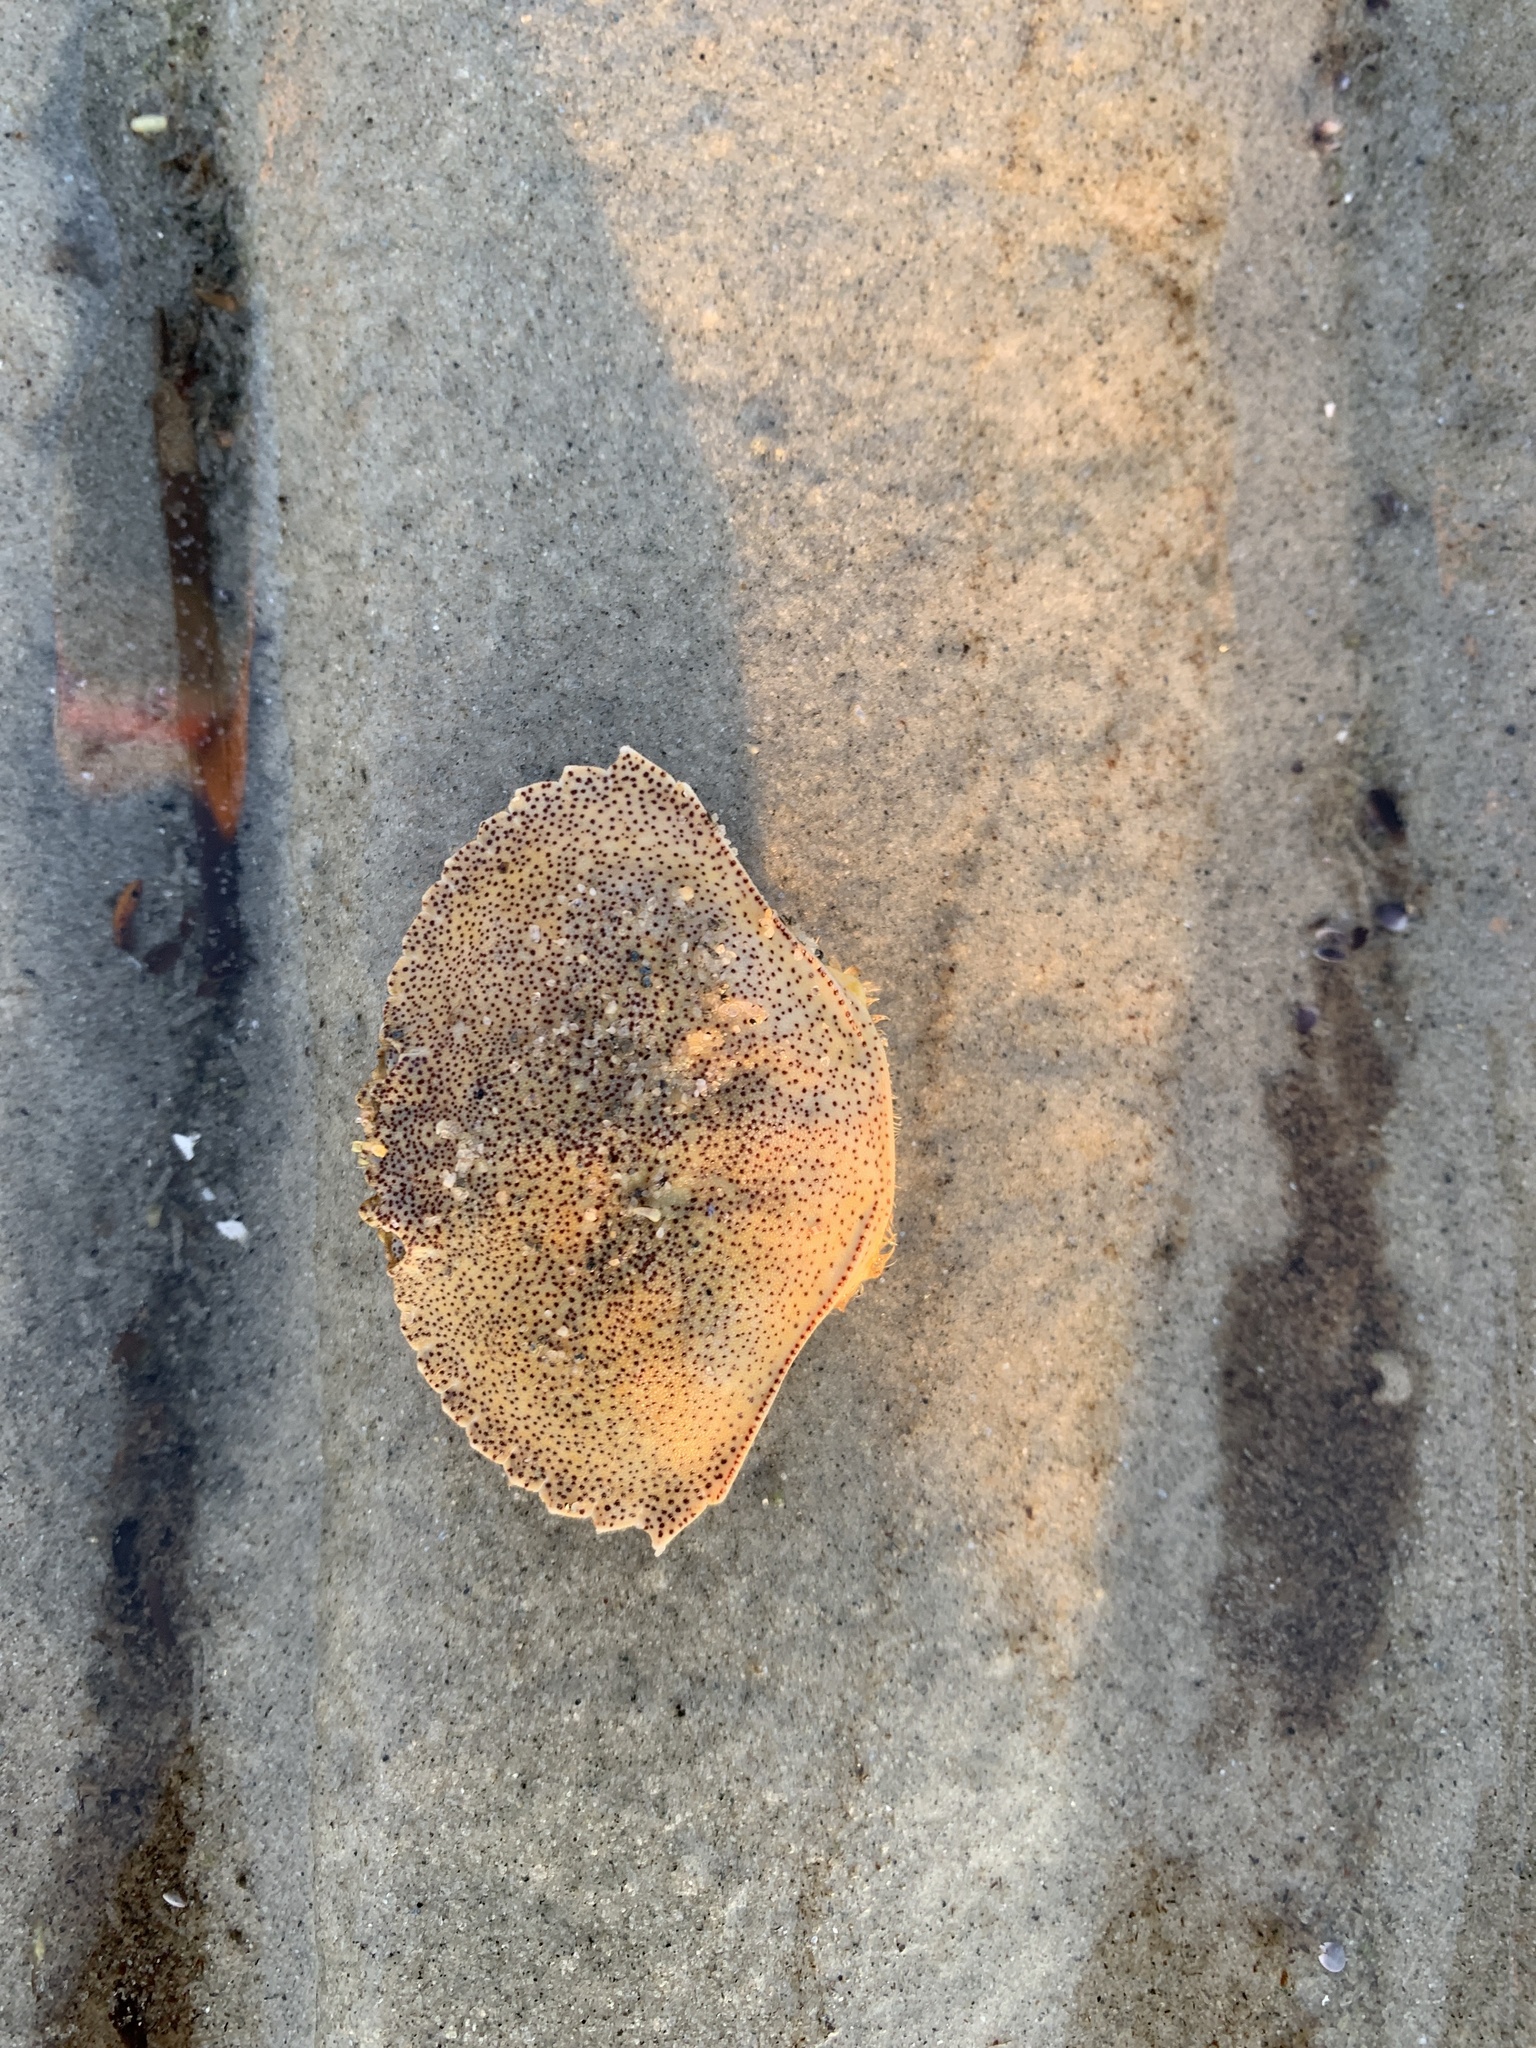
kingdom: Animalia
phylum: Arthropoda
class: Malacostraca
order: Decapoda
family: Cancridae
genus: Cancer
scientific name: Cancer irroratus
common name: Atlantic rock crab
